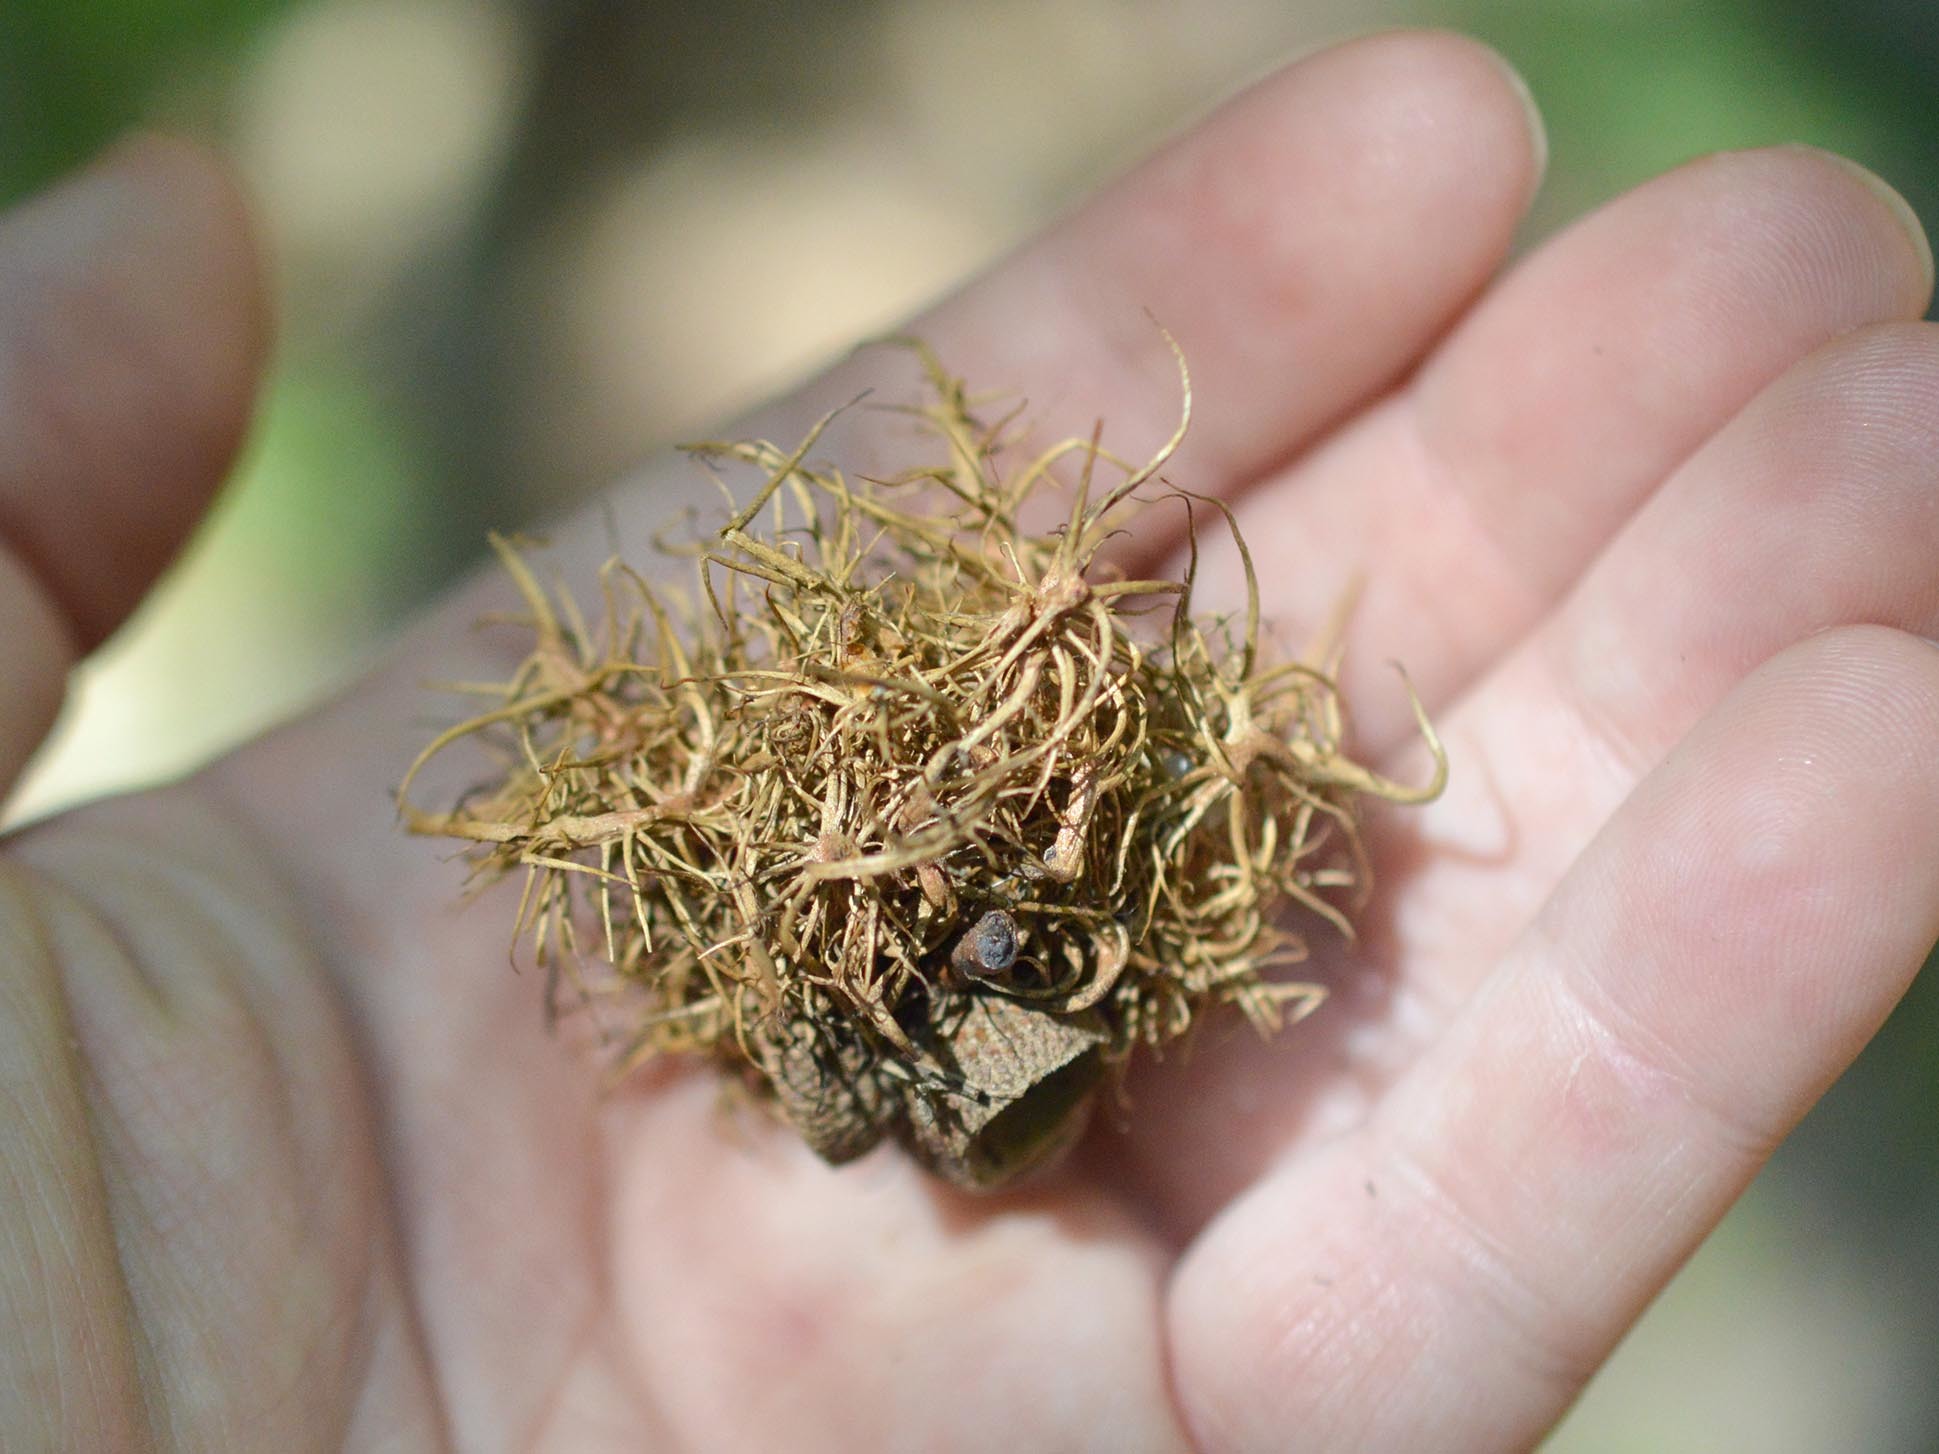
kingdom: Animalia
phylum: Arthropoda
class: Insecta
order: Hymenoptera
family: Cynipidae
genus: Andricus
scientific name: Andricus caputmedusae
